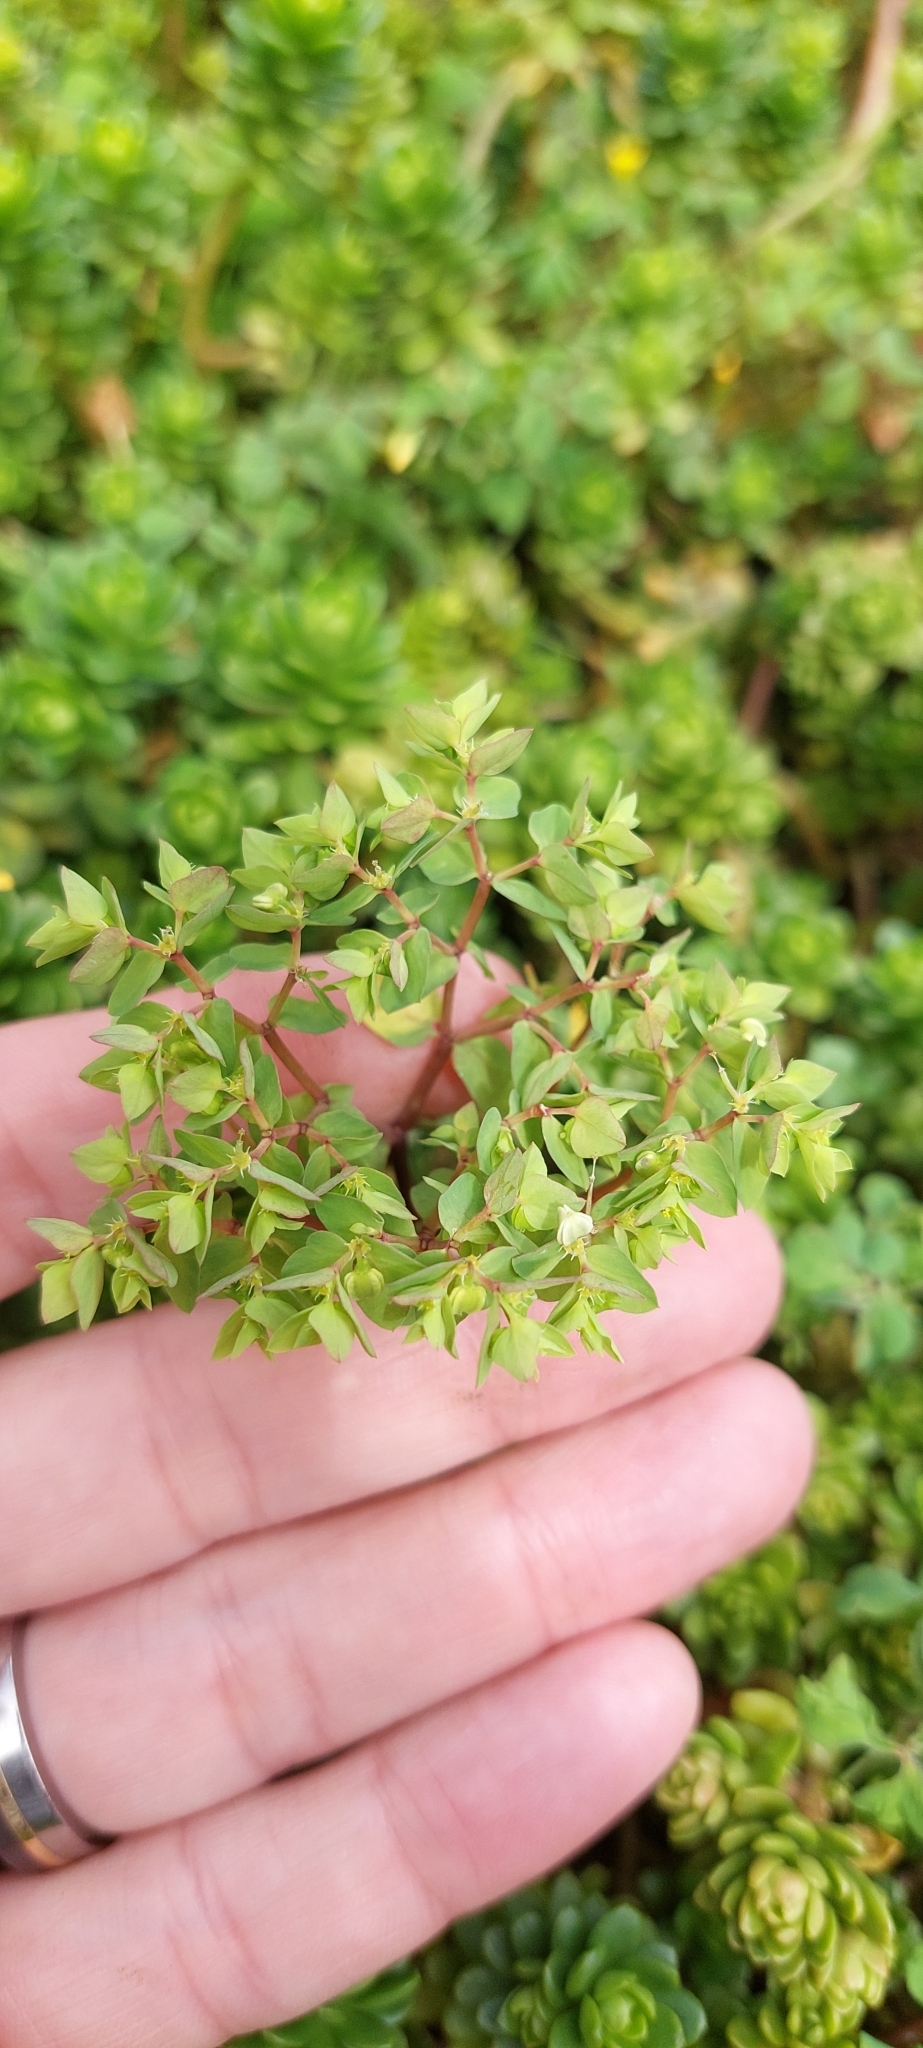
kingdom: Plantae
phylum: Tracheophyta
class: Magnoliopsida
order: Malpighiales
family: Euphorbiaceae
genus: Euphorbia
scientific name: Euphorbia peplus
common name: Petty spurge
